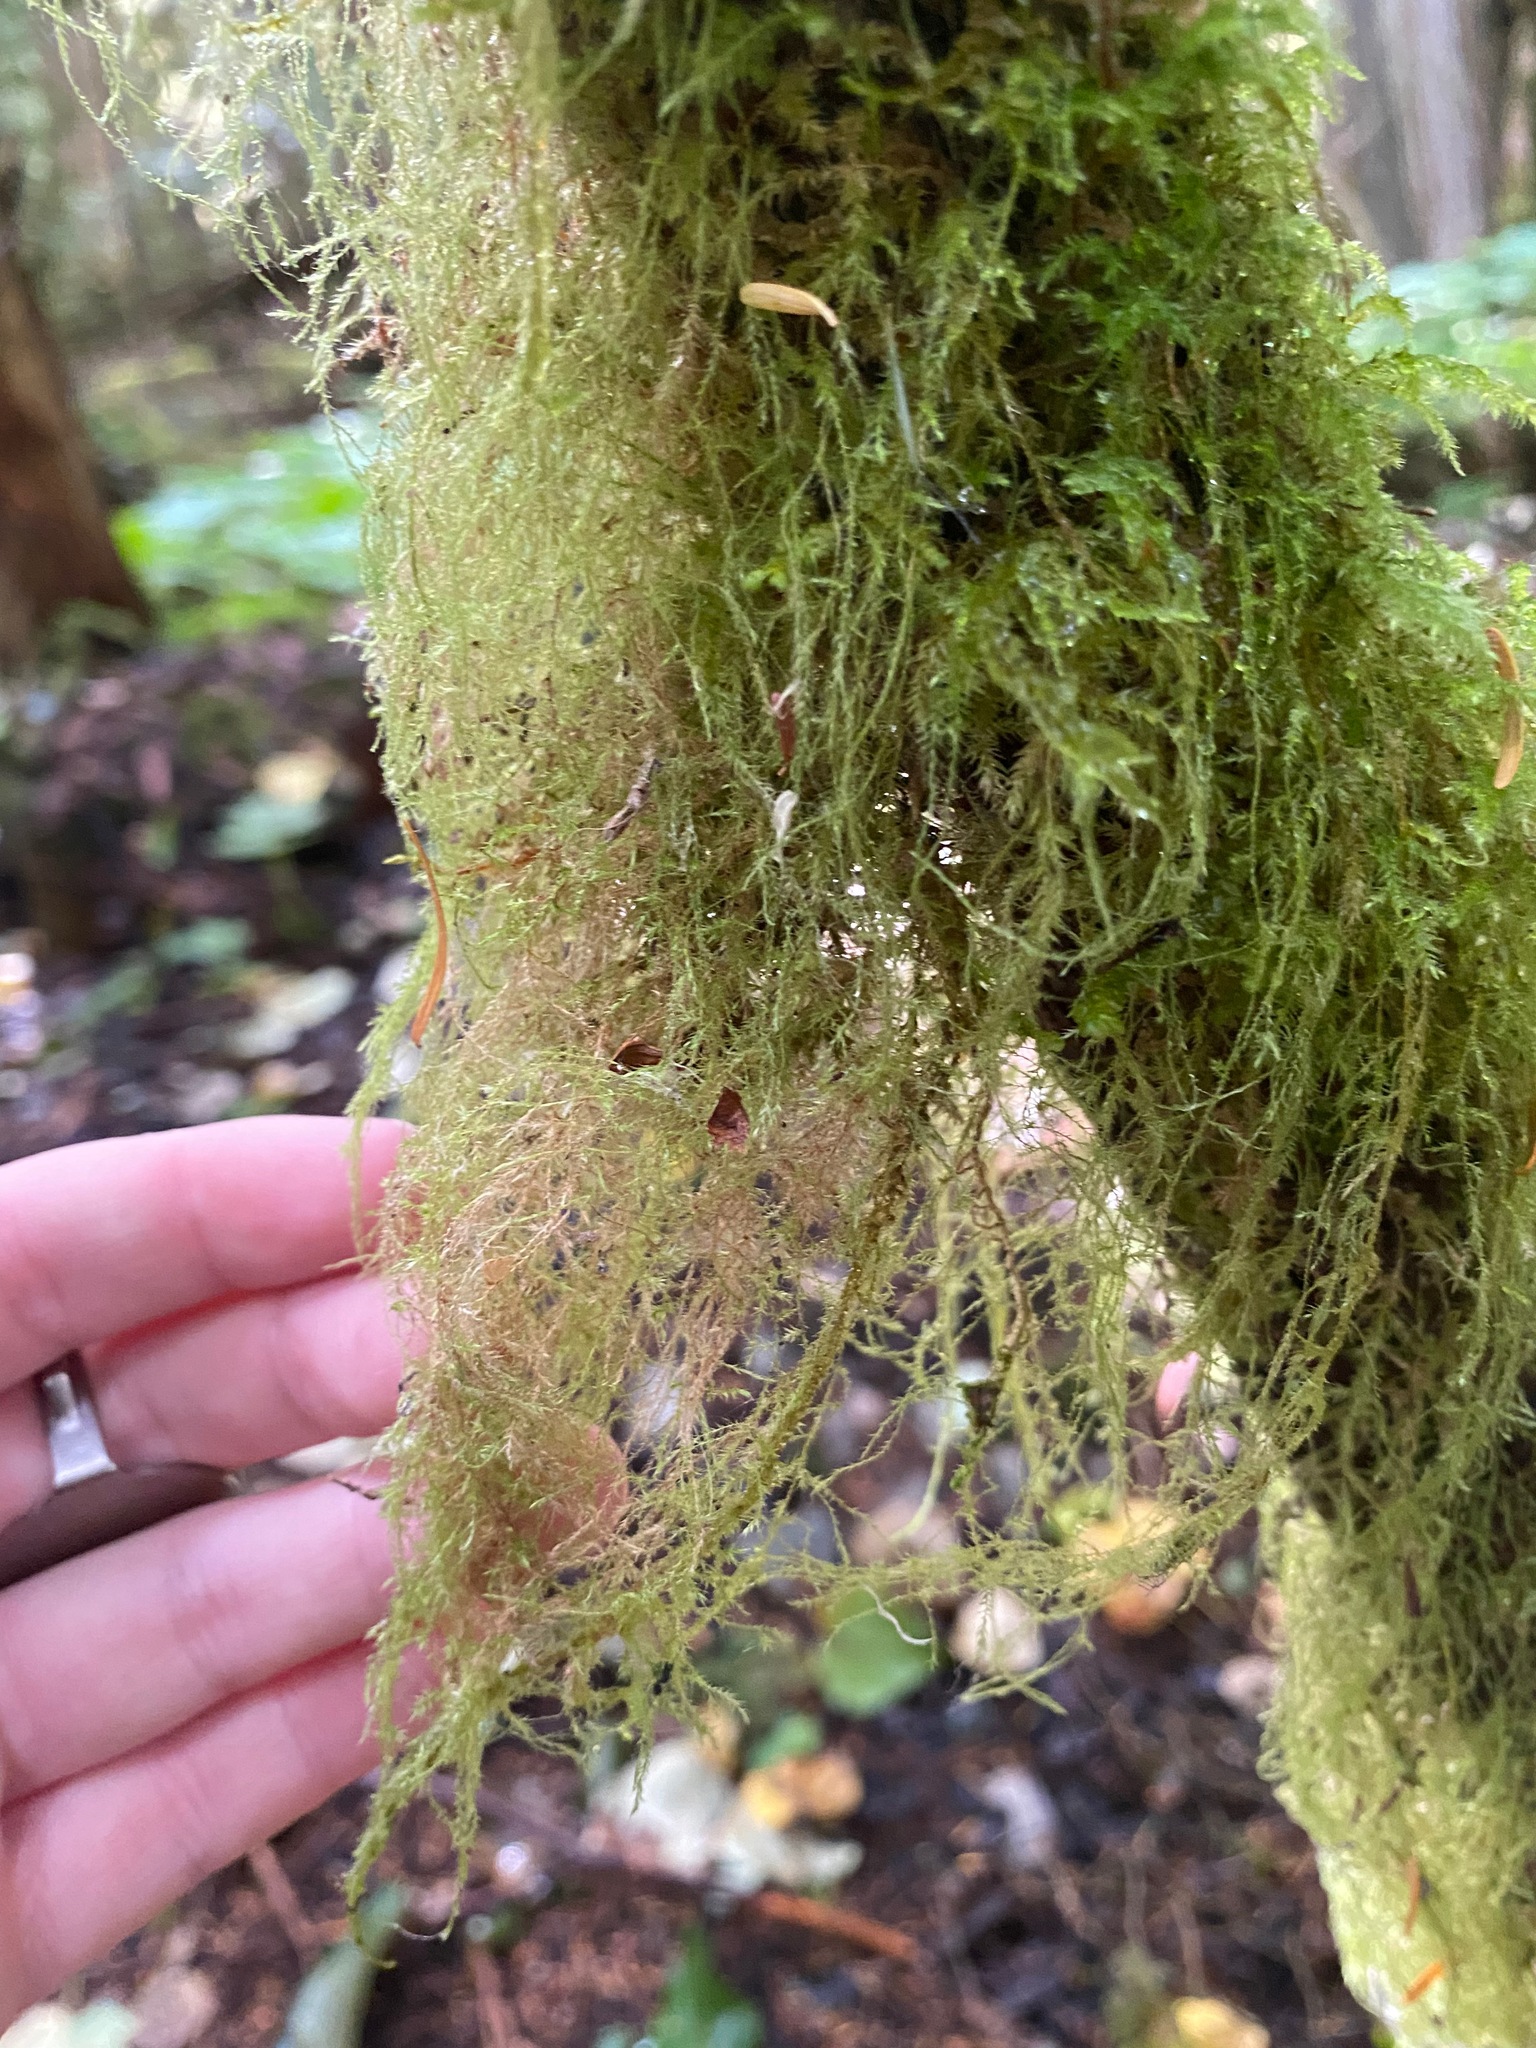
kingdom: Plantae
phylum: Bryophyta
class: Bryopsida
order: Hypnales
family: Lembophyllaceae
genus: Pseudisothecium
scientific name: Pseudisothecium stoloniferum
